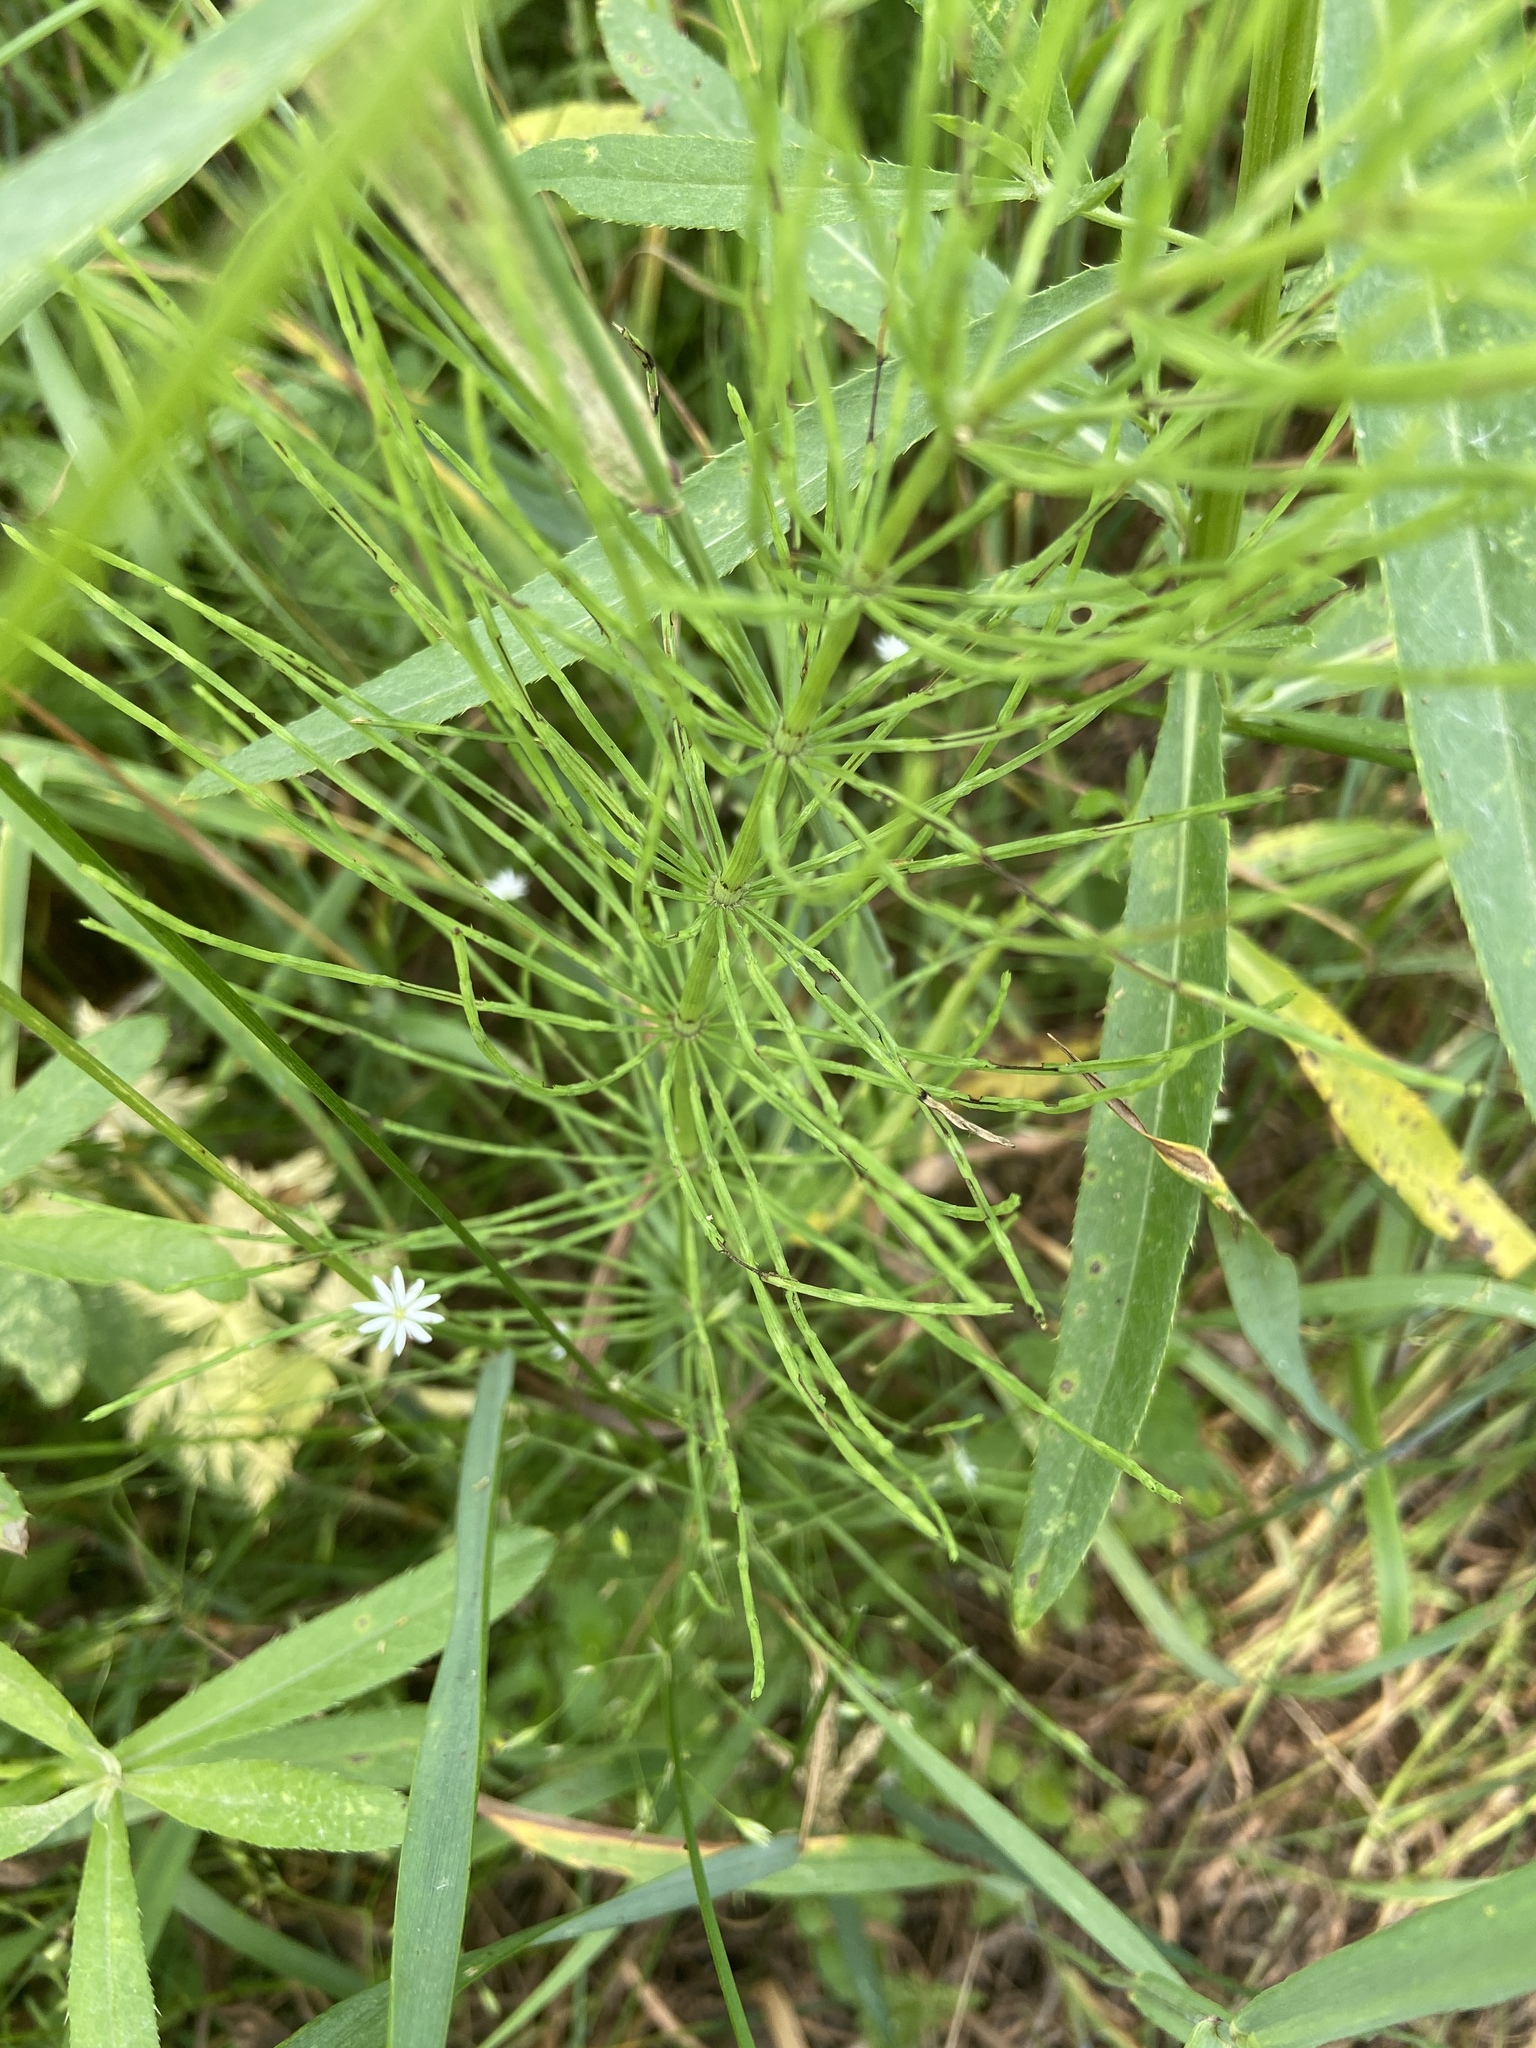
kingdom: Plantae
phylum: Tracheophyta
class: Polypodiopsida
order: Equisetales
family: Equisetaceae
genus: Equisetum
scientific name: Equisetum arvense
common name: Field horsetail
